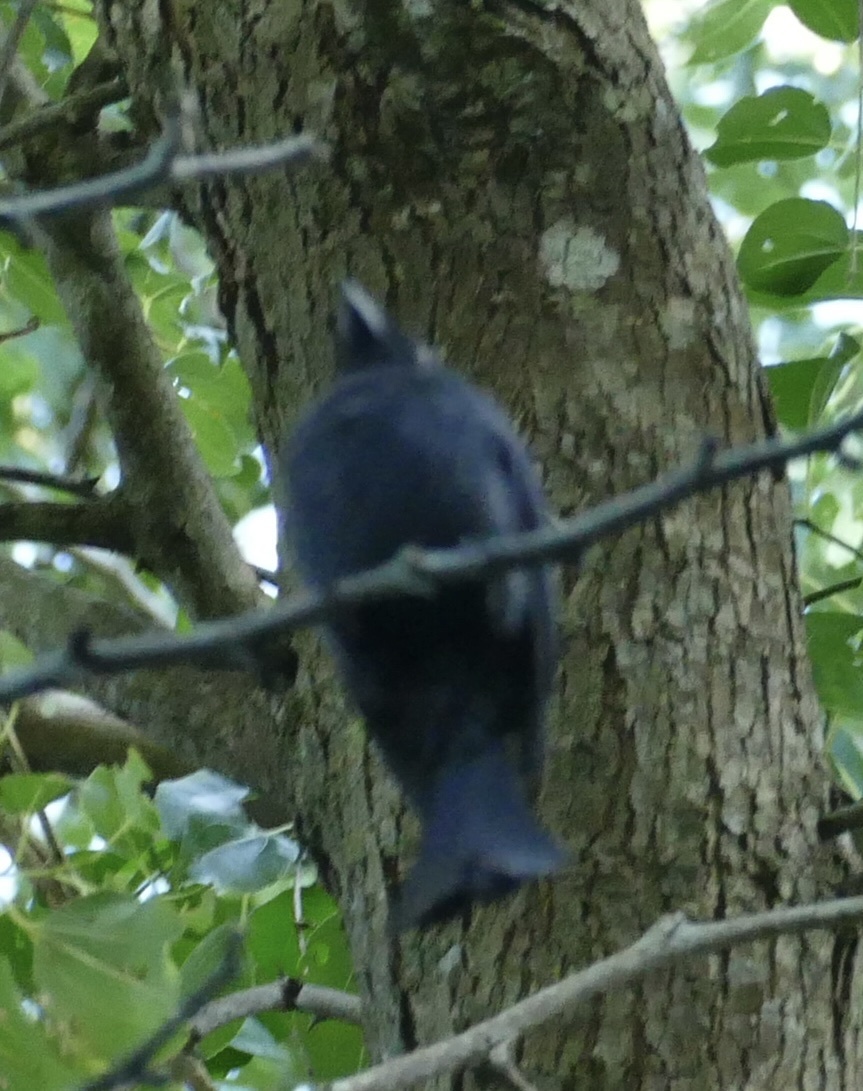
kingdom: Animalia
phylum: Chordata
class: Aves
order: Passeriformes
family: Dicruridae
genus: Dicrurus
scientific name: Dicrurus adsimilis
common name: Fork-tailed drongo
